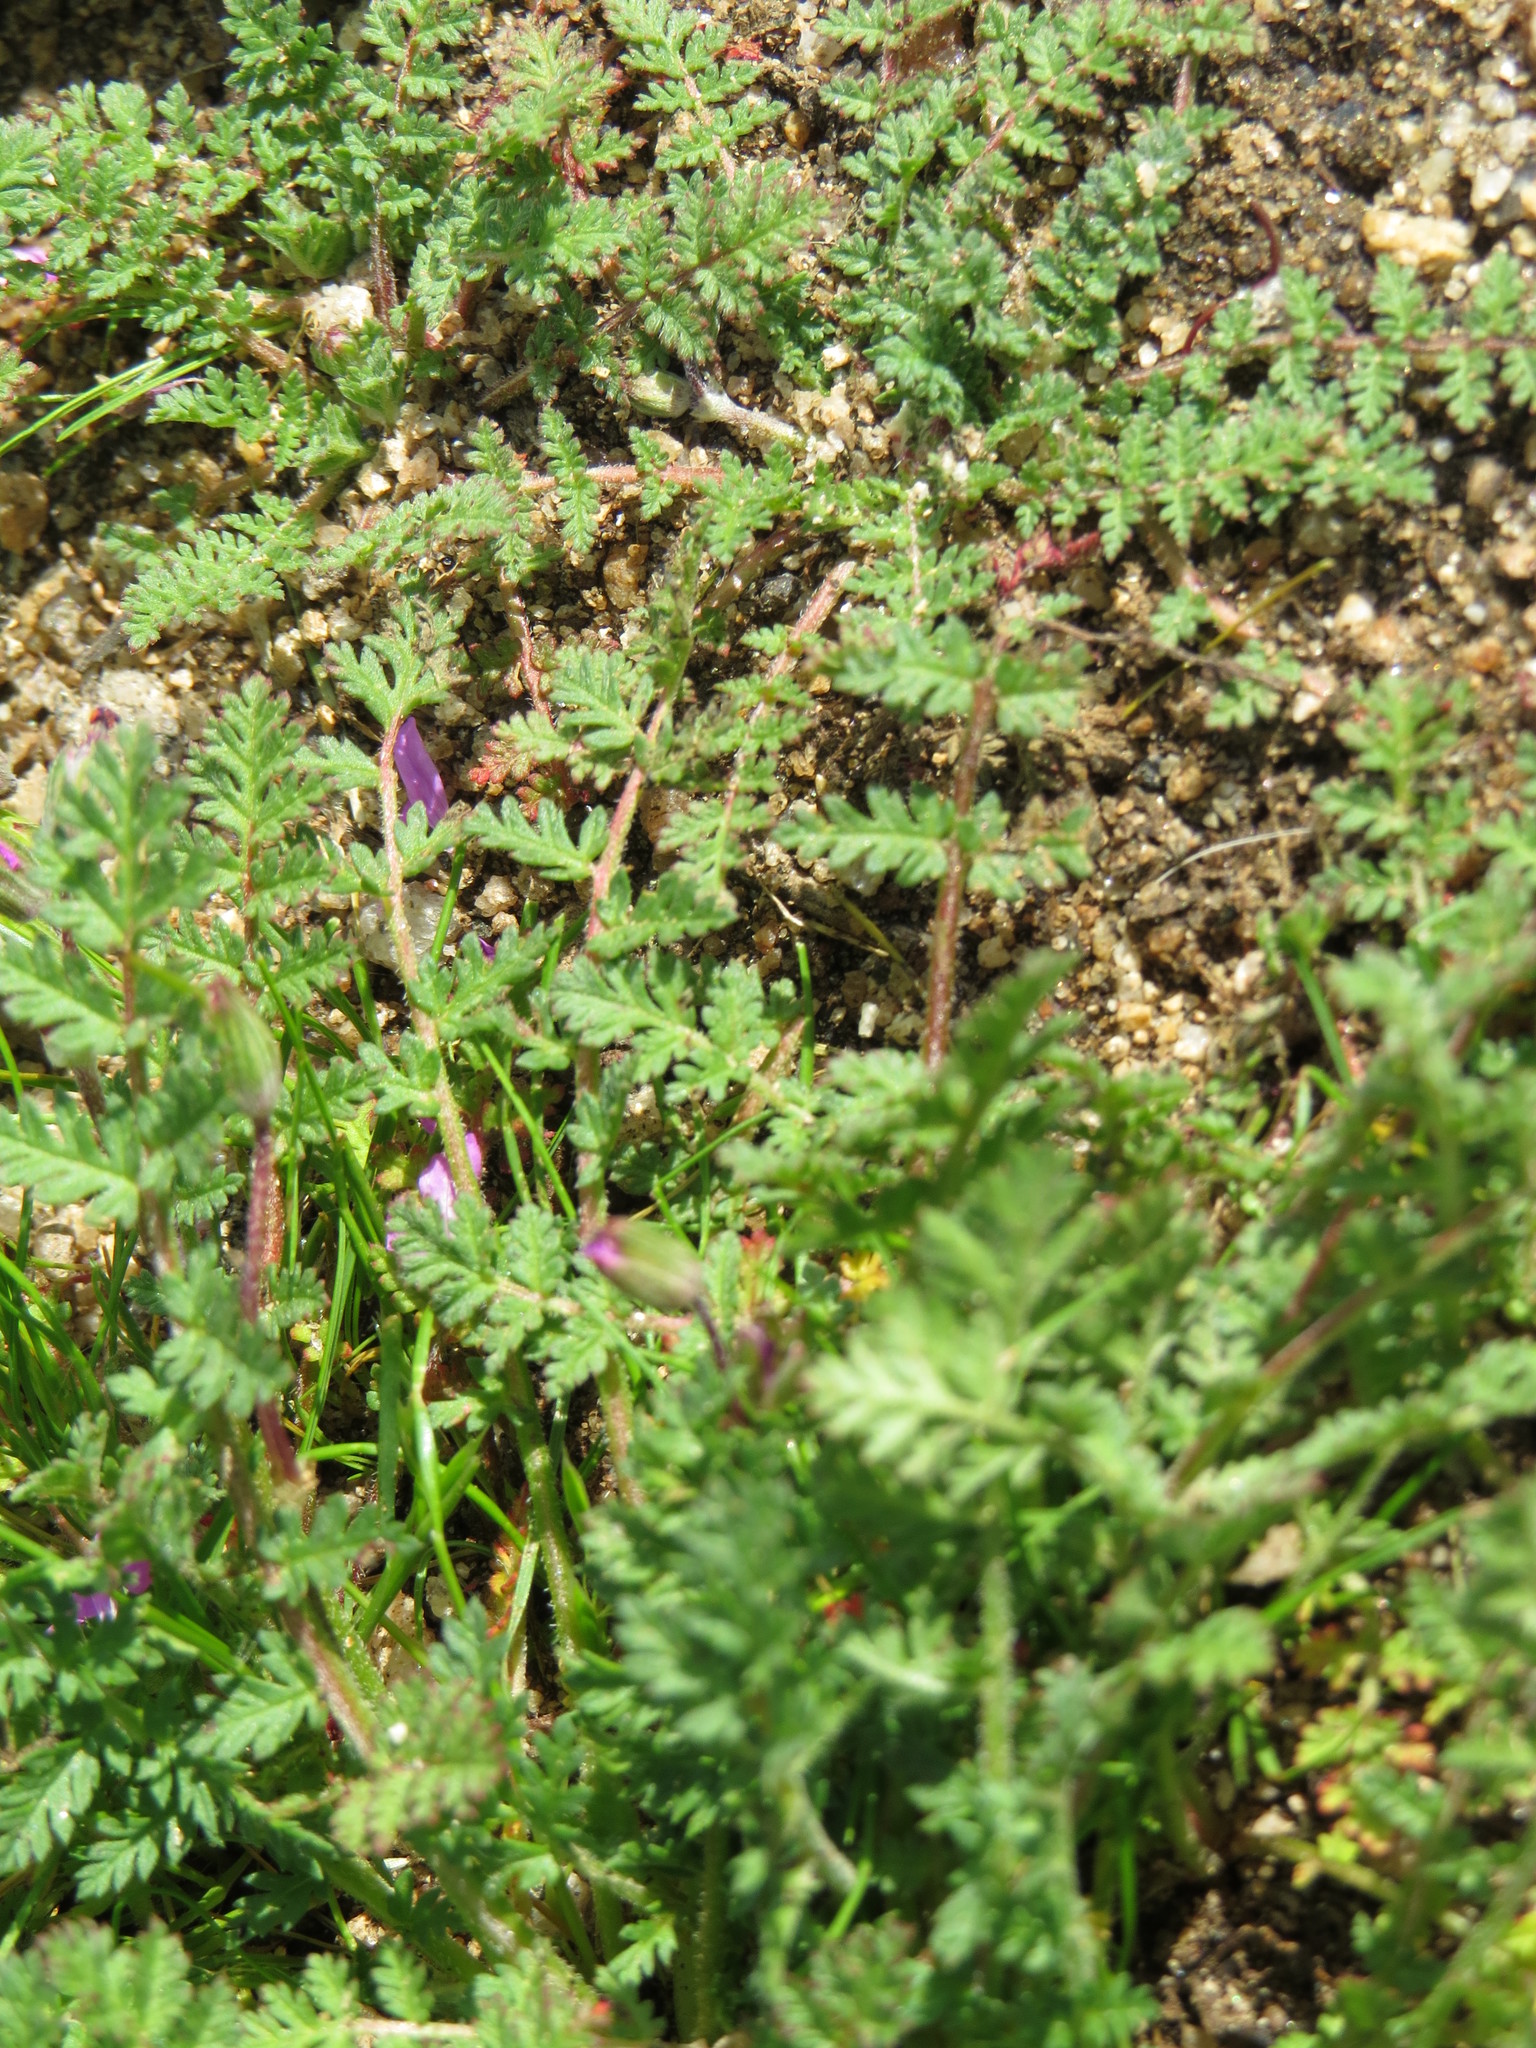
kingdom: Plantae
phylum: Tracheophyta
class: Magnoliopsida
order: Geraniales
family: Geraniaceae
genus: Erodium
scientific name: Erodium cicutarium
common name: Common stork's-bill
